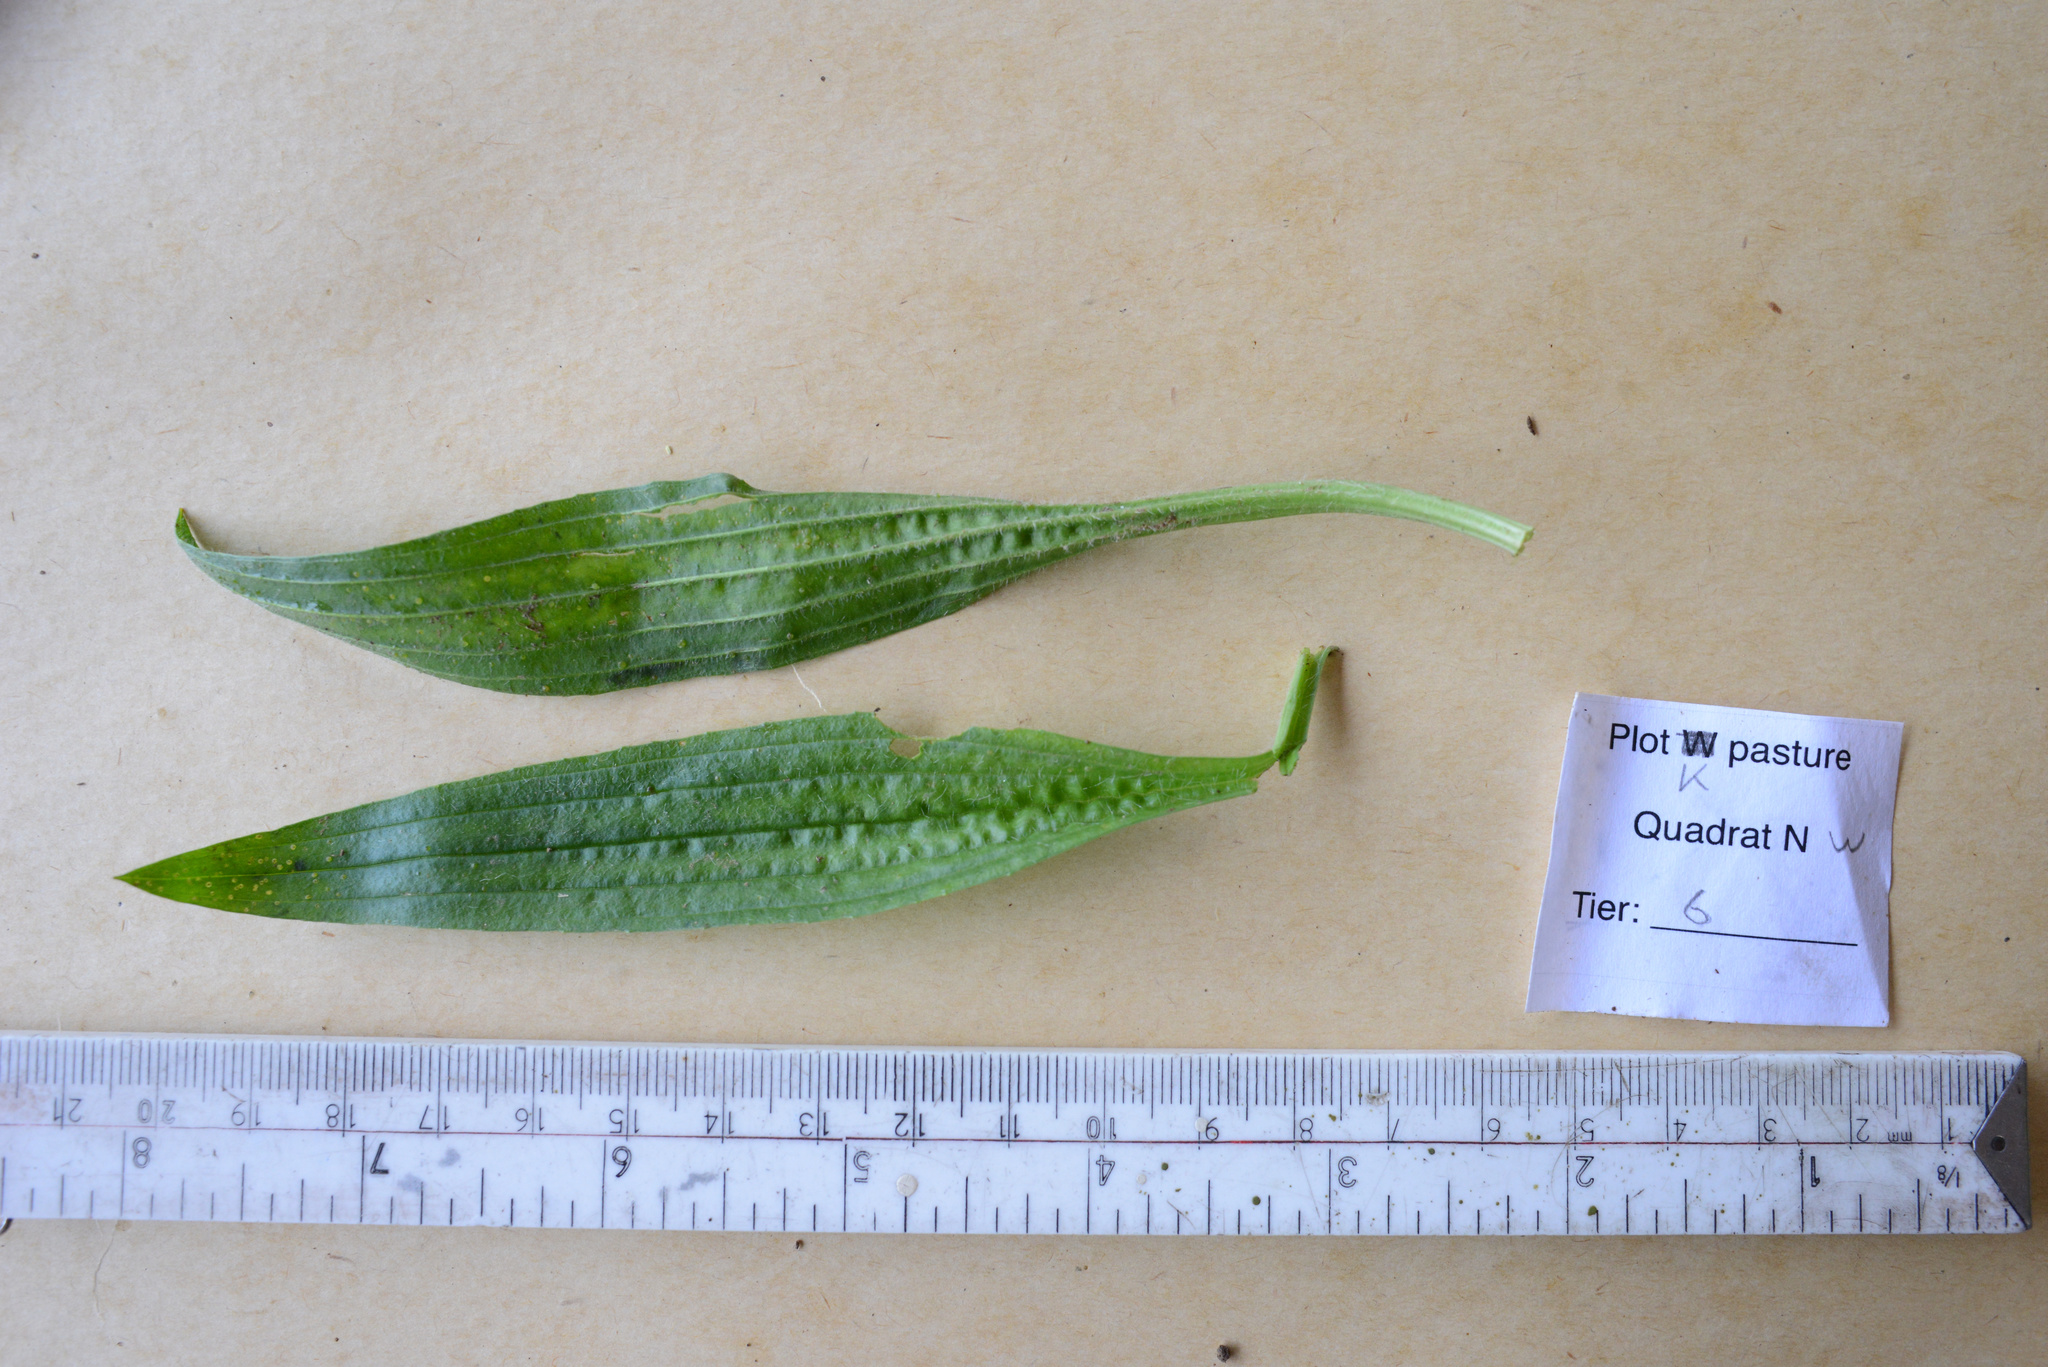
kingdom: Plantae
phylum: Tracheophyta
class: Magnoliopsida
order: Lamiales
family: Plantaginaceae
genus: Plantago
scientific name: Plantago lanceolata
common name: Ribwort plantain
